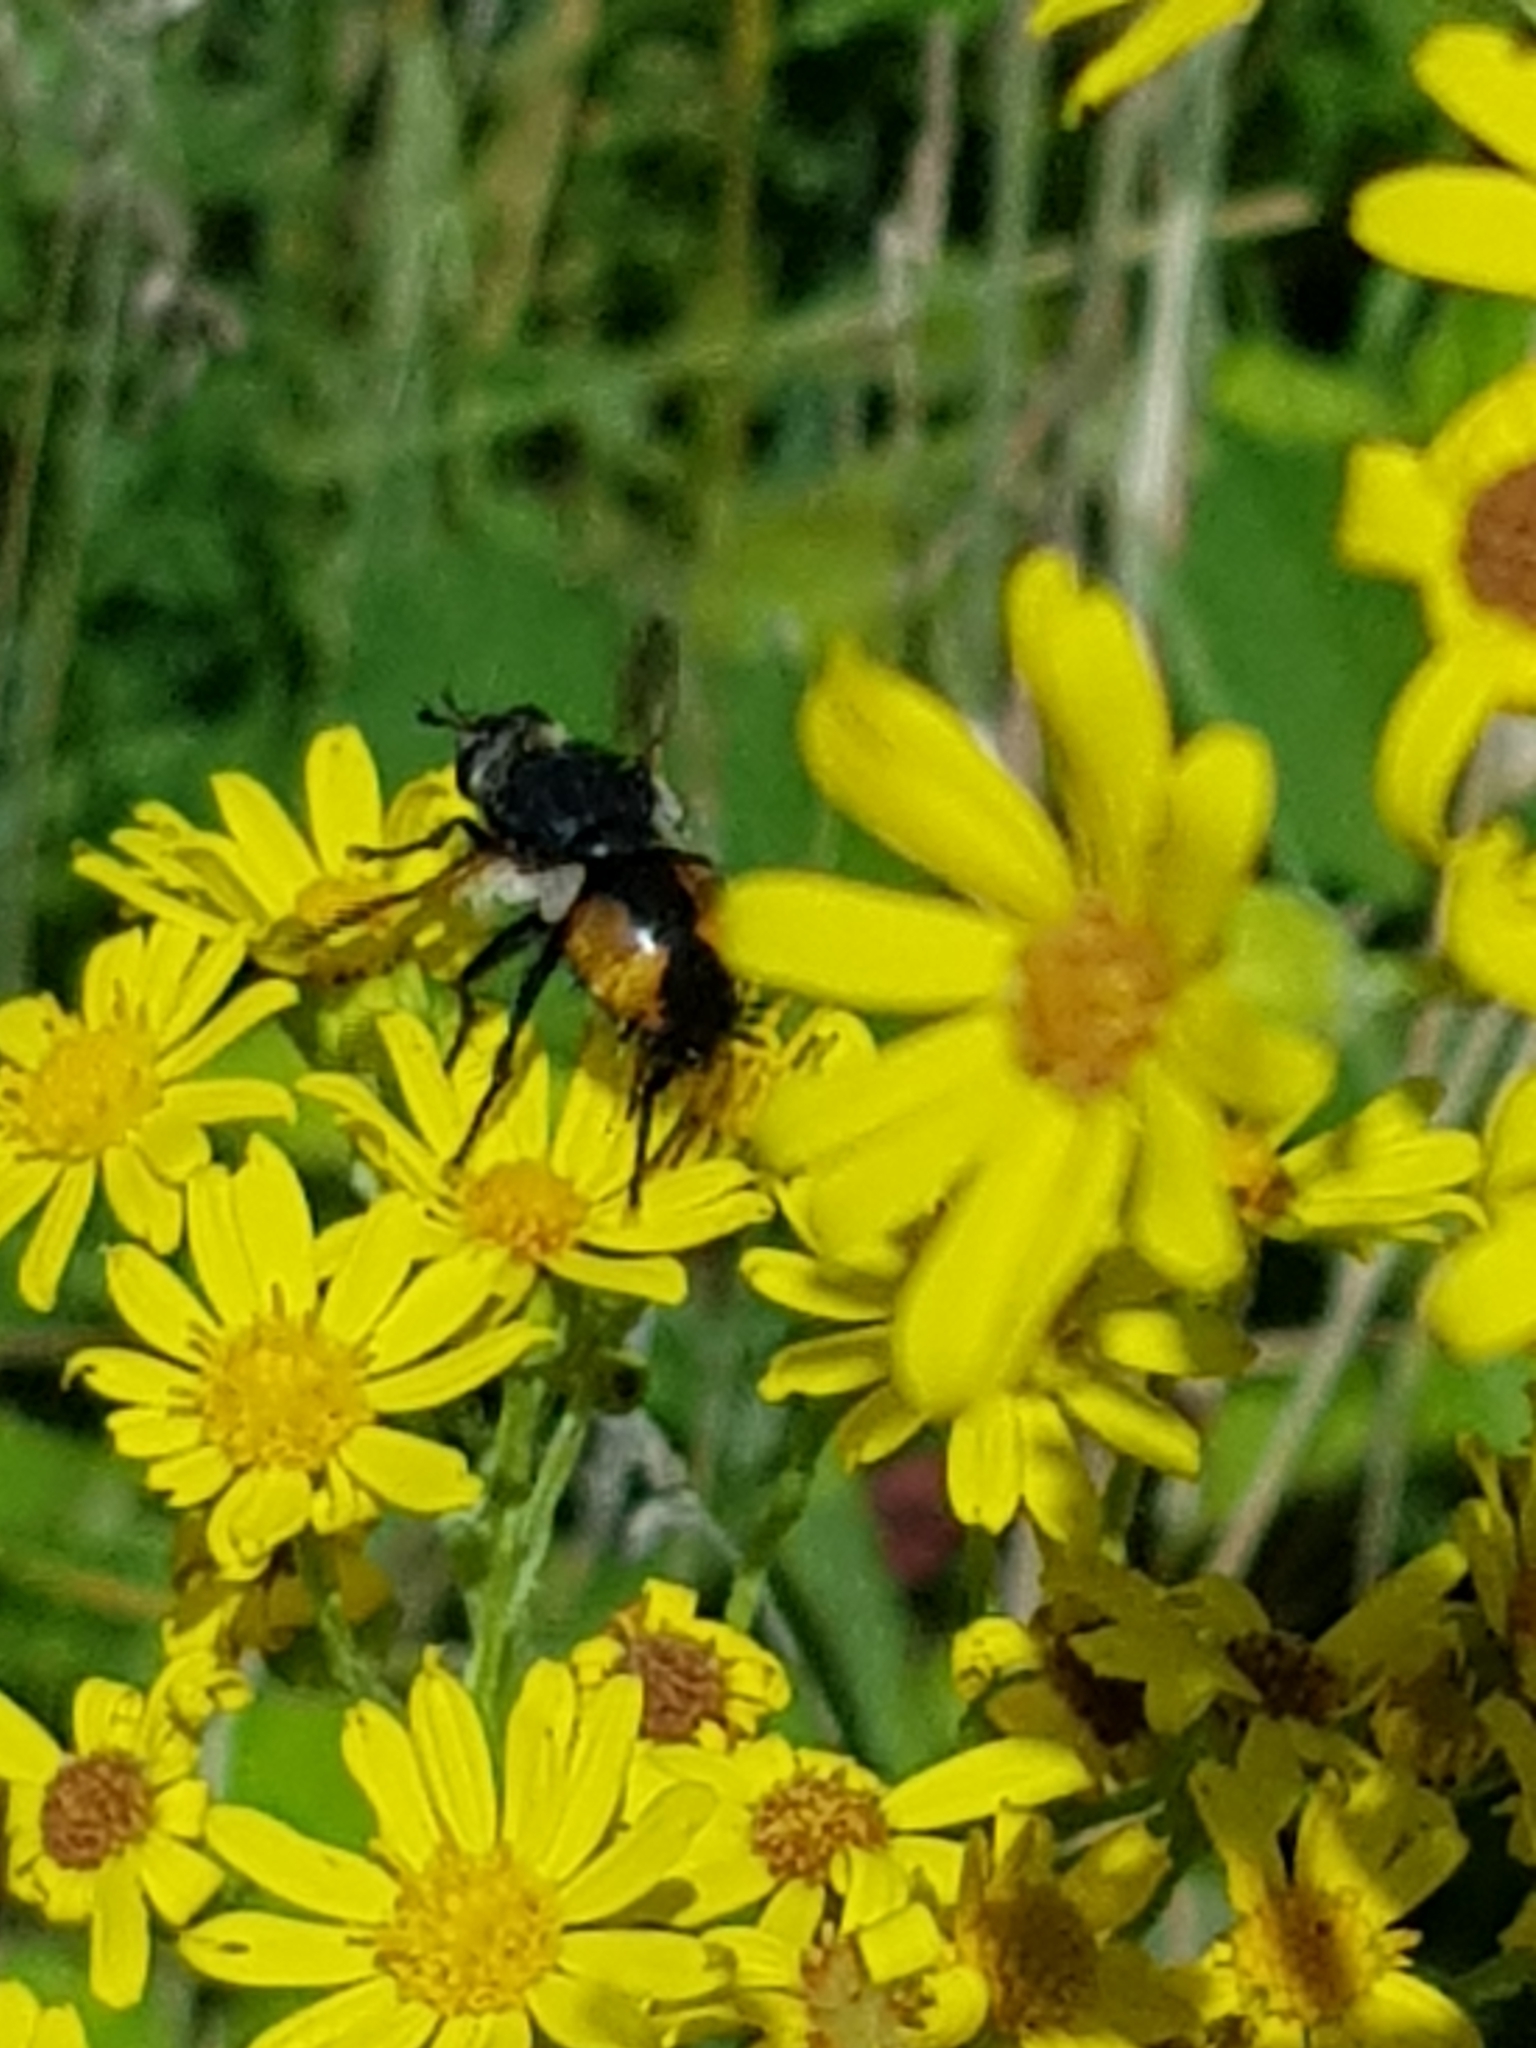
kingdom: Animalia
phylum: Arthropoda
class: Insecta
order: Diptera
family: Tachinidae
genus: Nowickia
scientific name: Nowickia ferox
